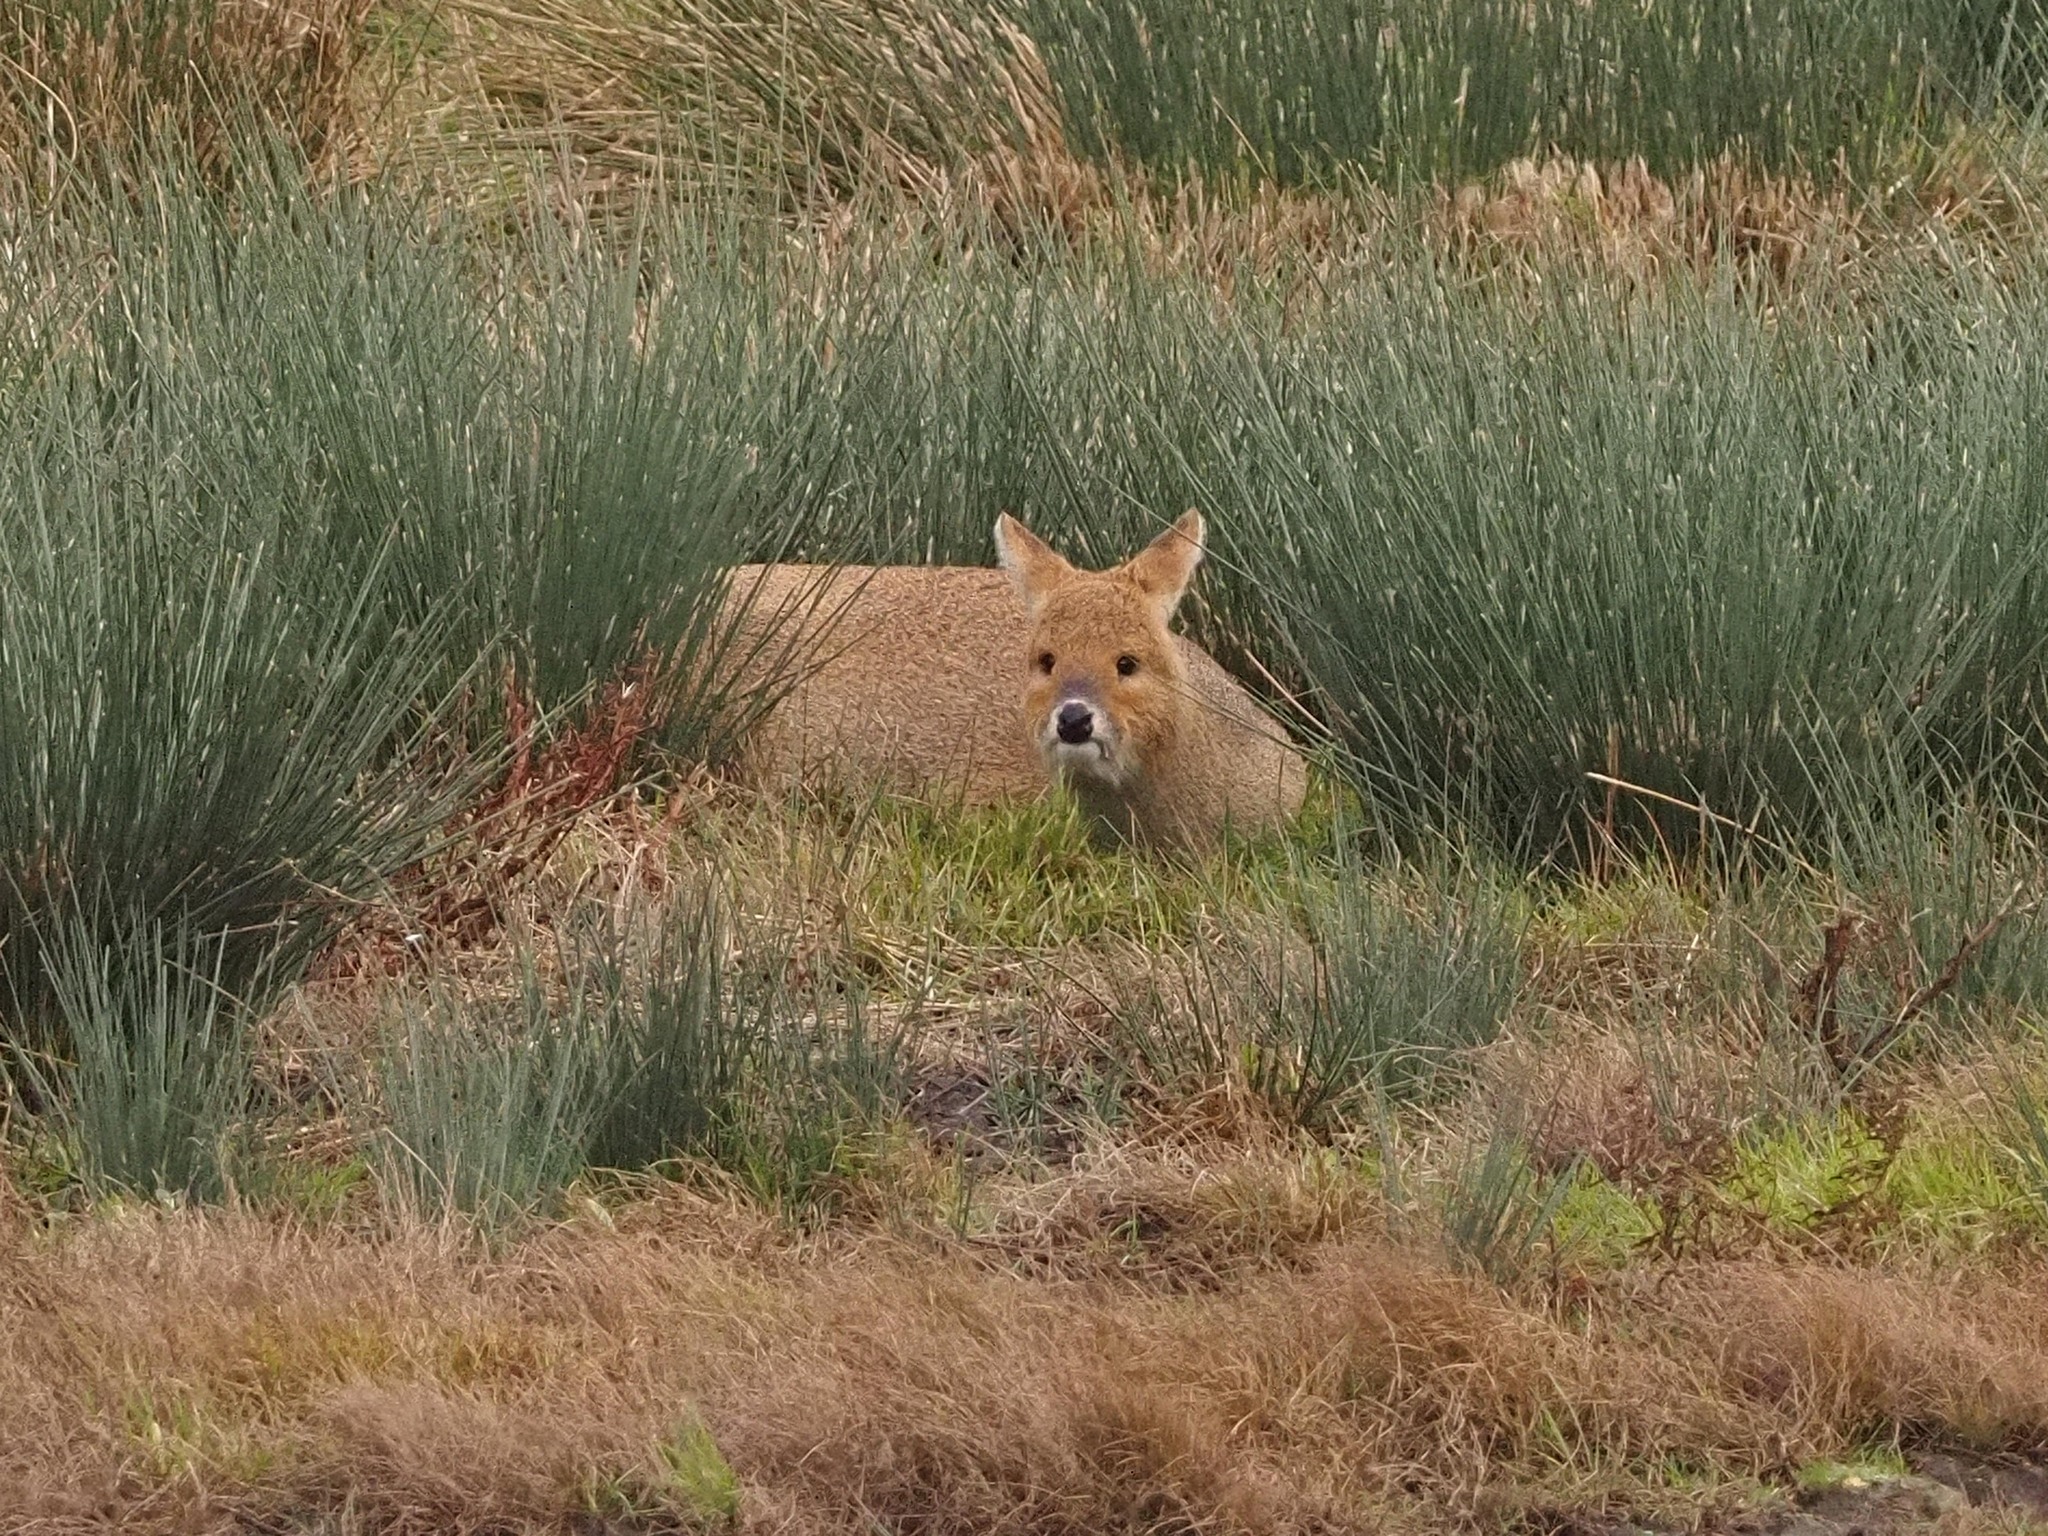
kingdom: Animalia
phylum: Chordata
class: Mammalia
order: Artiodactyla
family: Cervidae
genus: Hydropotes
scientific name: Hydropotes inermis
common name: Chinese water deer
